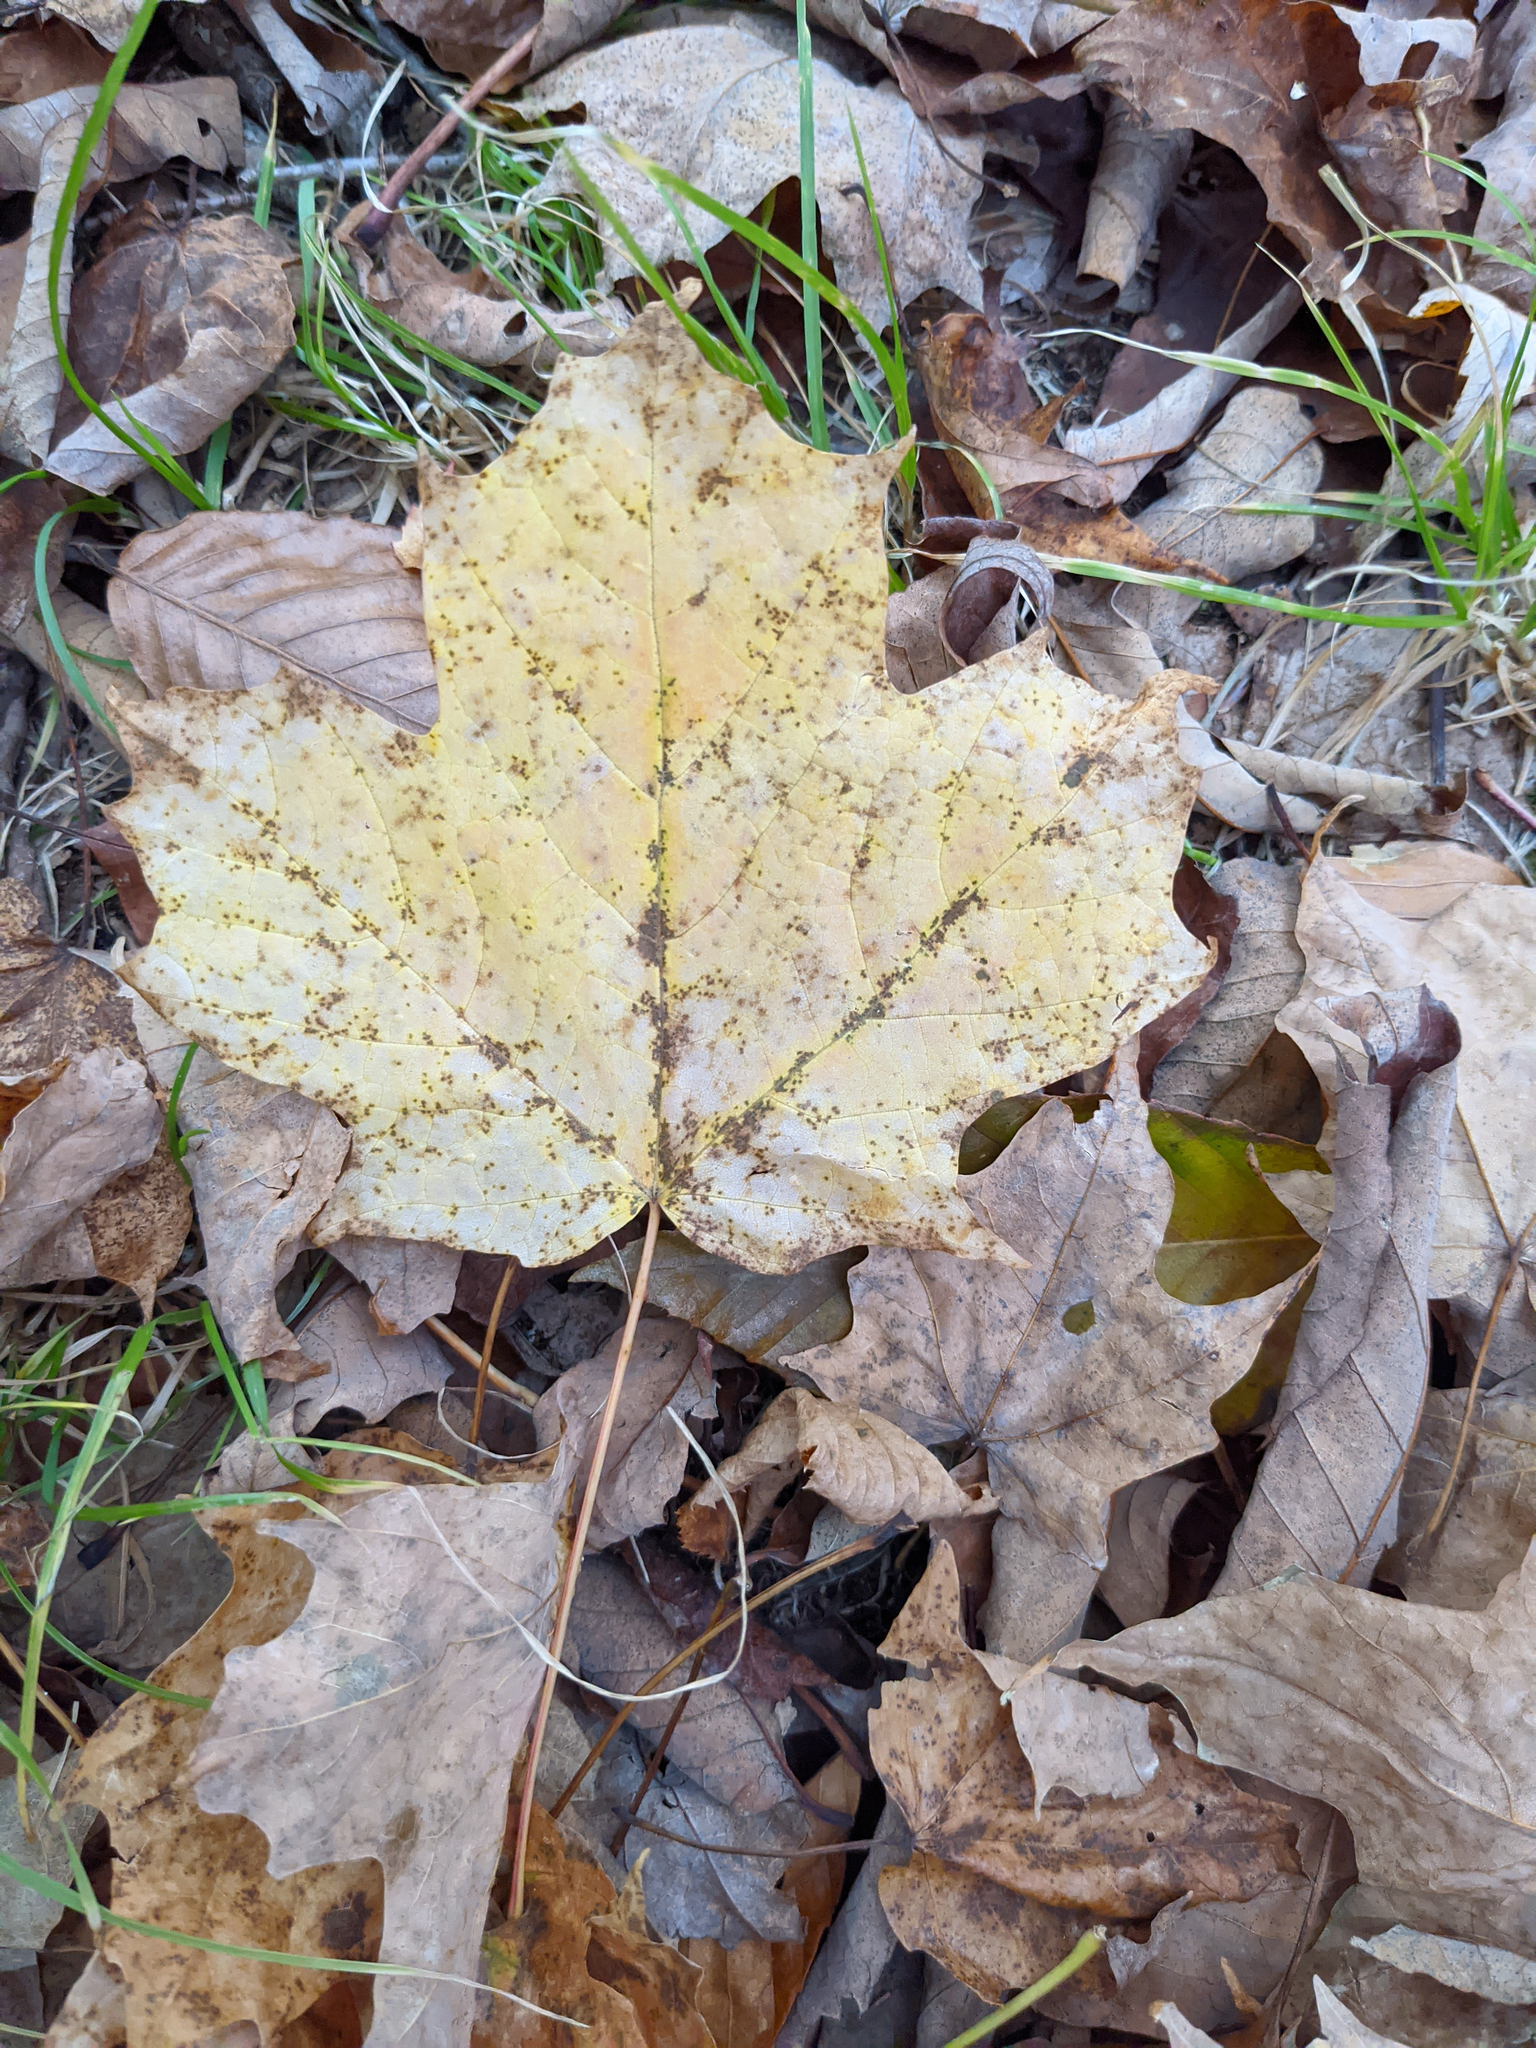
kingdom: Plantae
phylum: Tracheophyta
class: Magnoliopsida
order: Sapindales
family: Sapindaceae
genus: Acer
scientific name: Acer saccharum
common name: Sugar maple
